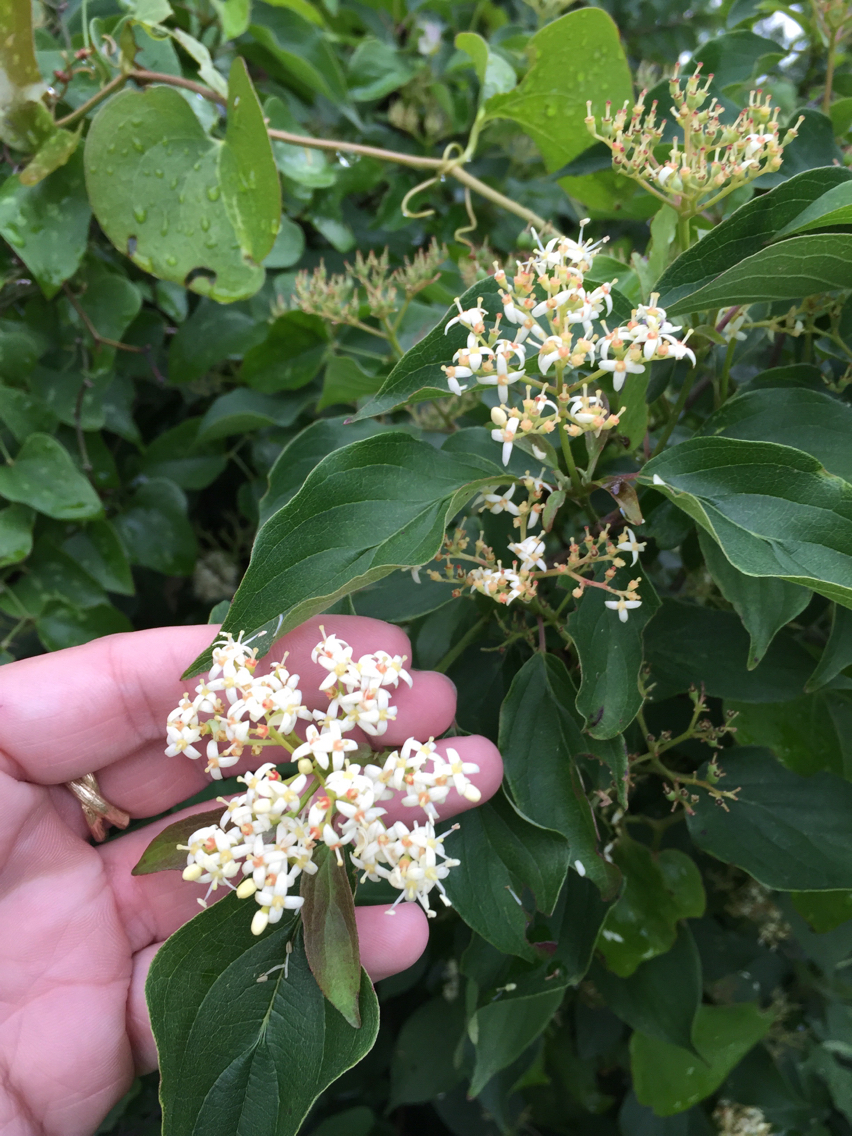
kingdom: Plantae
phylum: Tracheophyta
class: Magnoliopsida
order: Cornales
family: Cornaceae
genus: Cornus
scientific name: Cornus drummondii
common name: Rough-leaf dogwood
